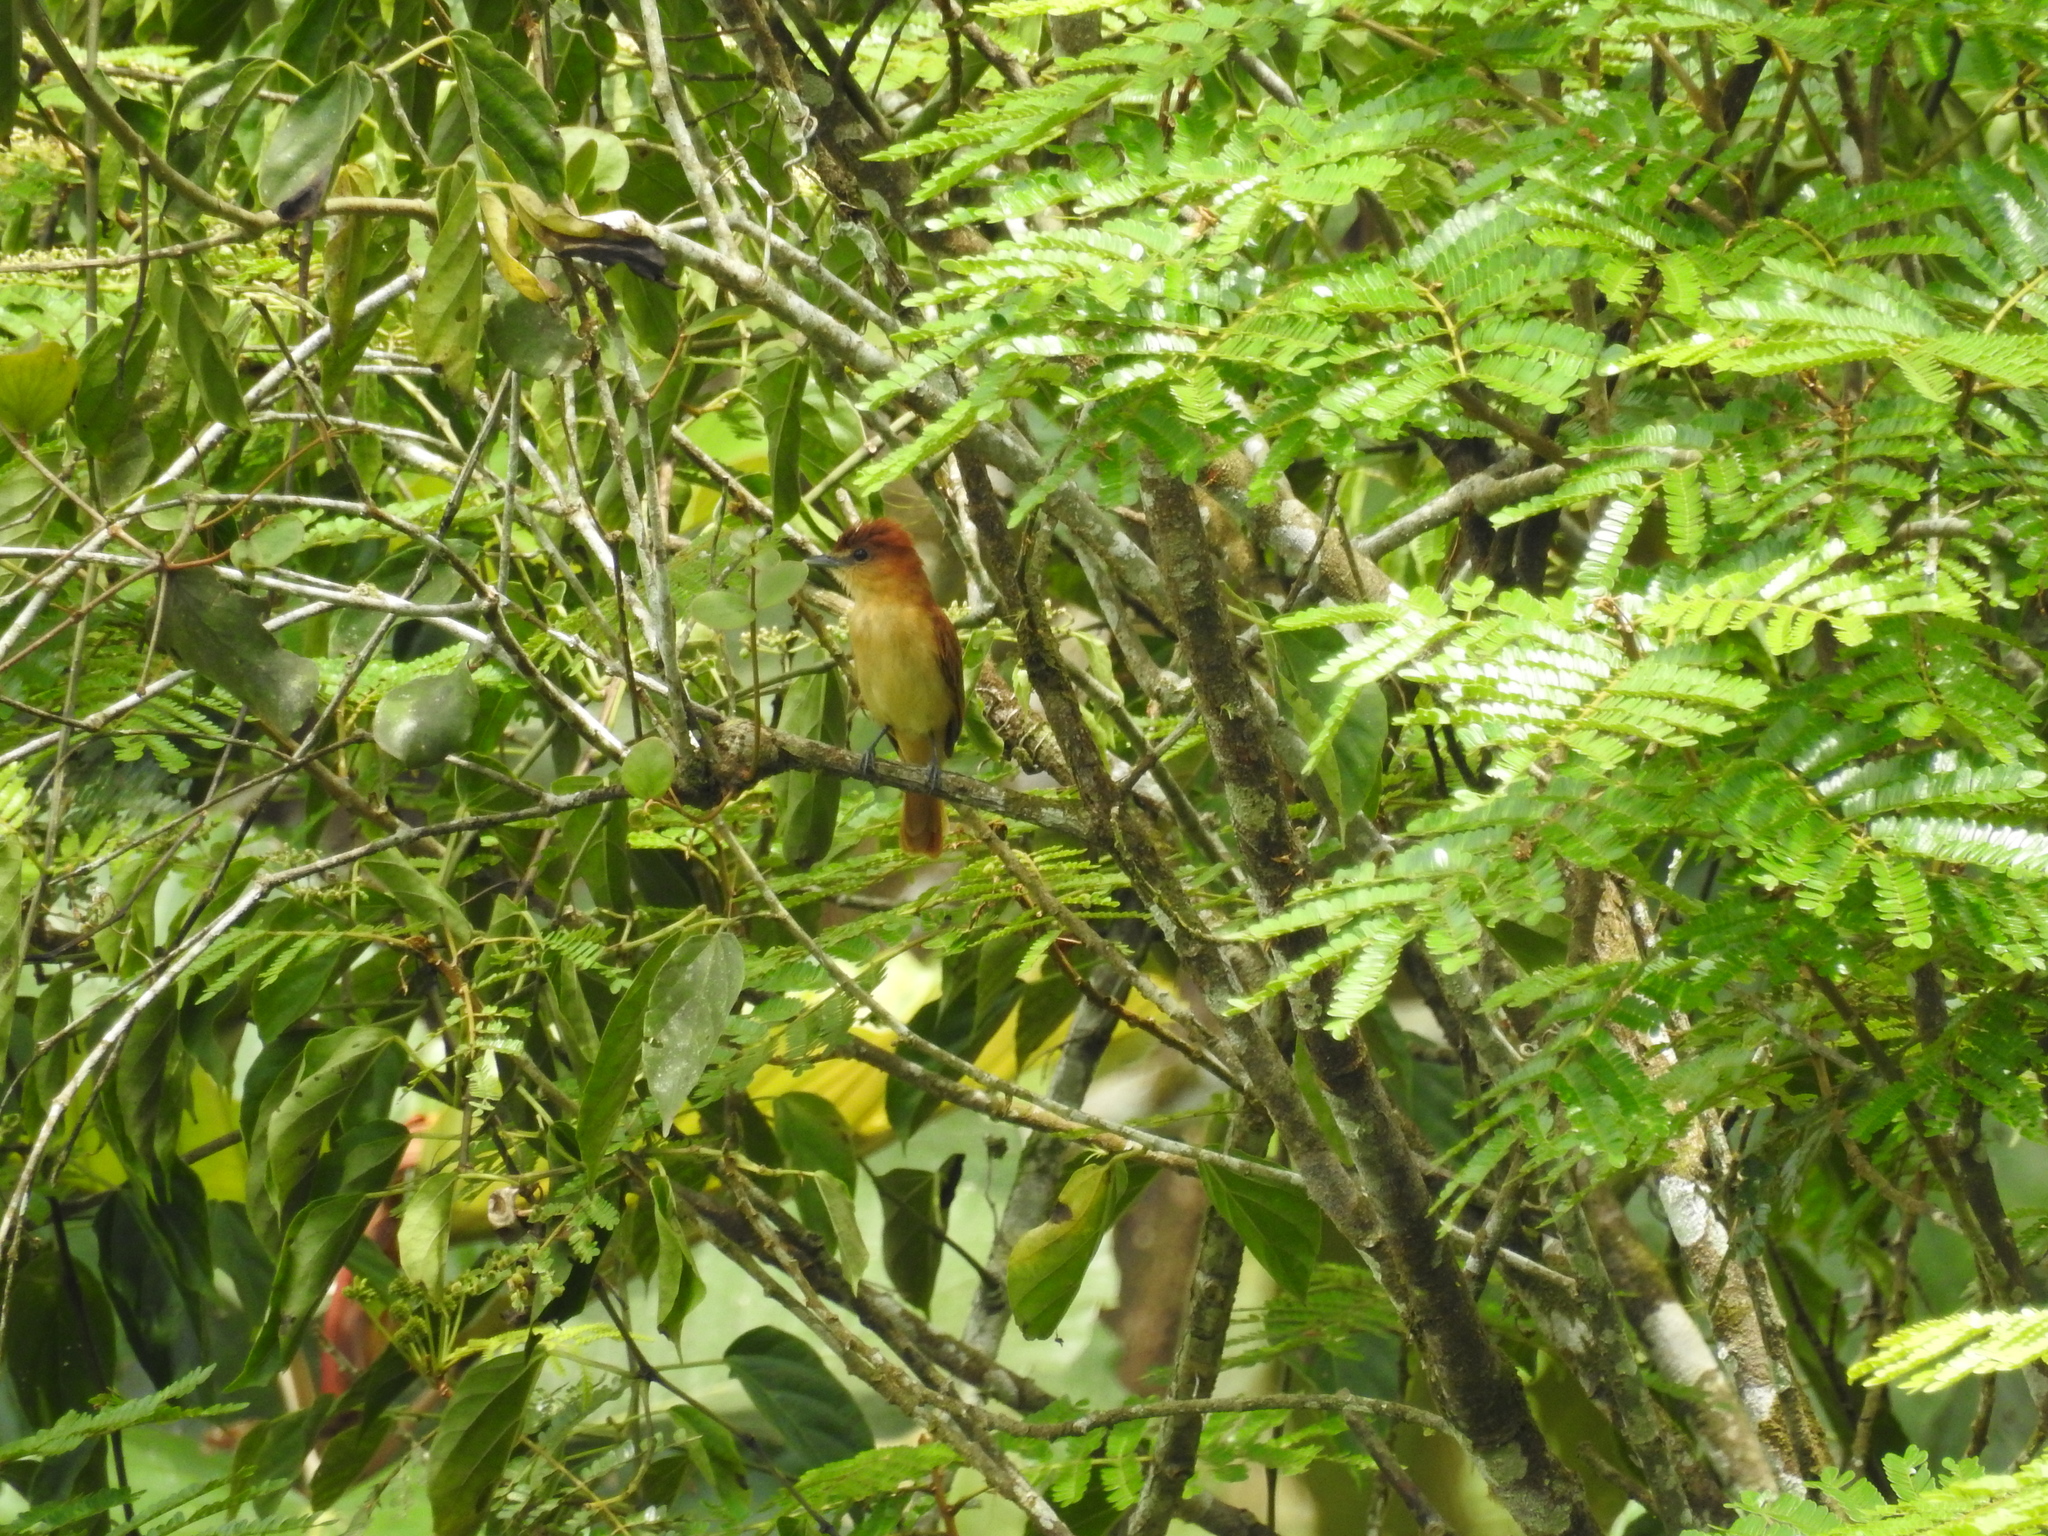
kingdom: Animalia
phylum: Chordata
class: Aves
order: Passeriformes
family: Cotingidae
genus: Pachyramphus
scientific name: Pachyramphus cinnamomeus
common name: Cinnamon becard
